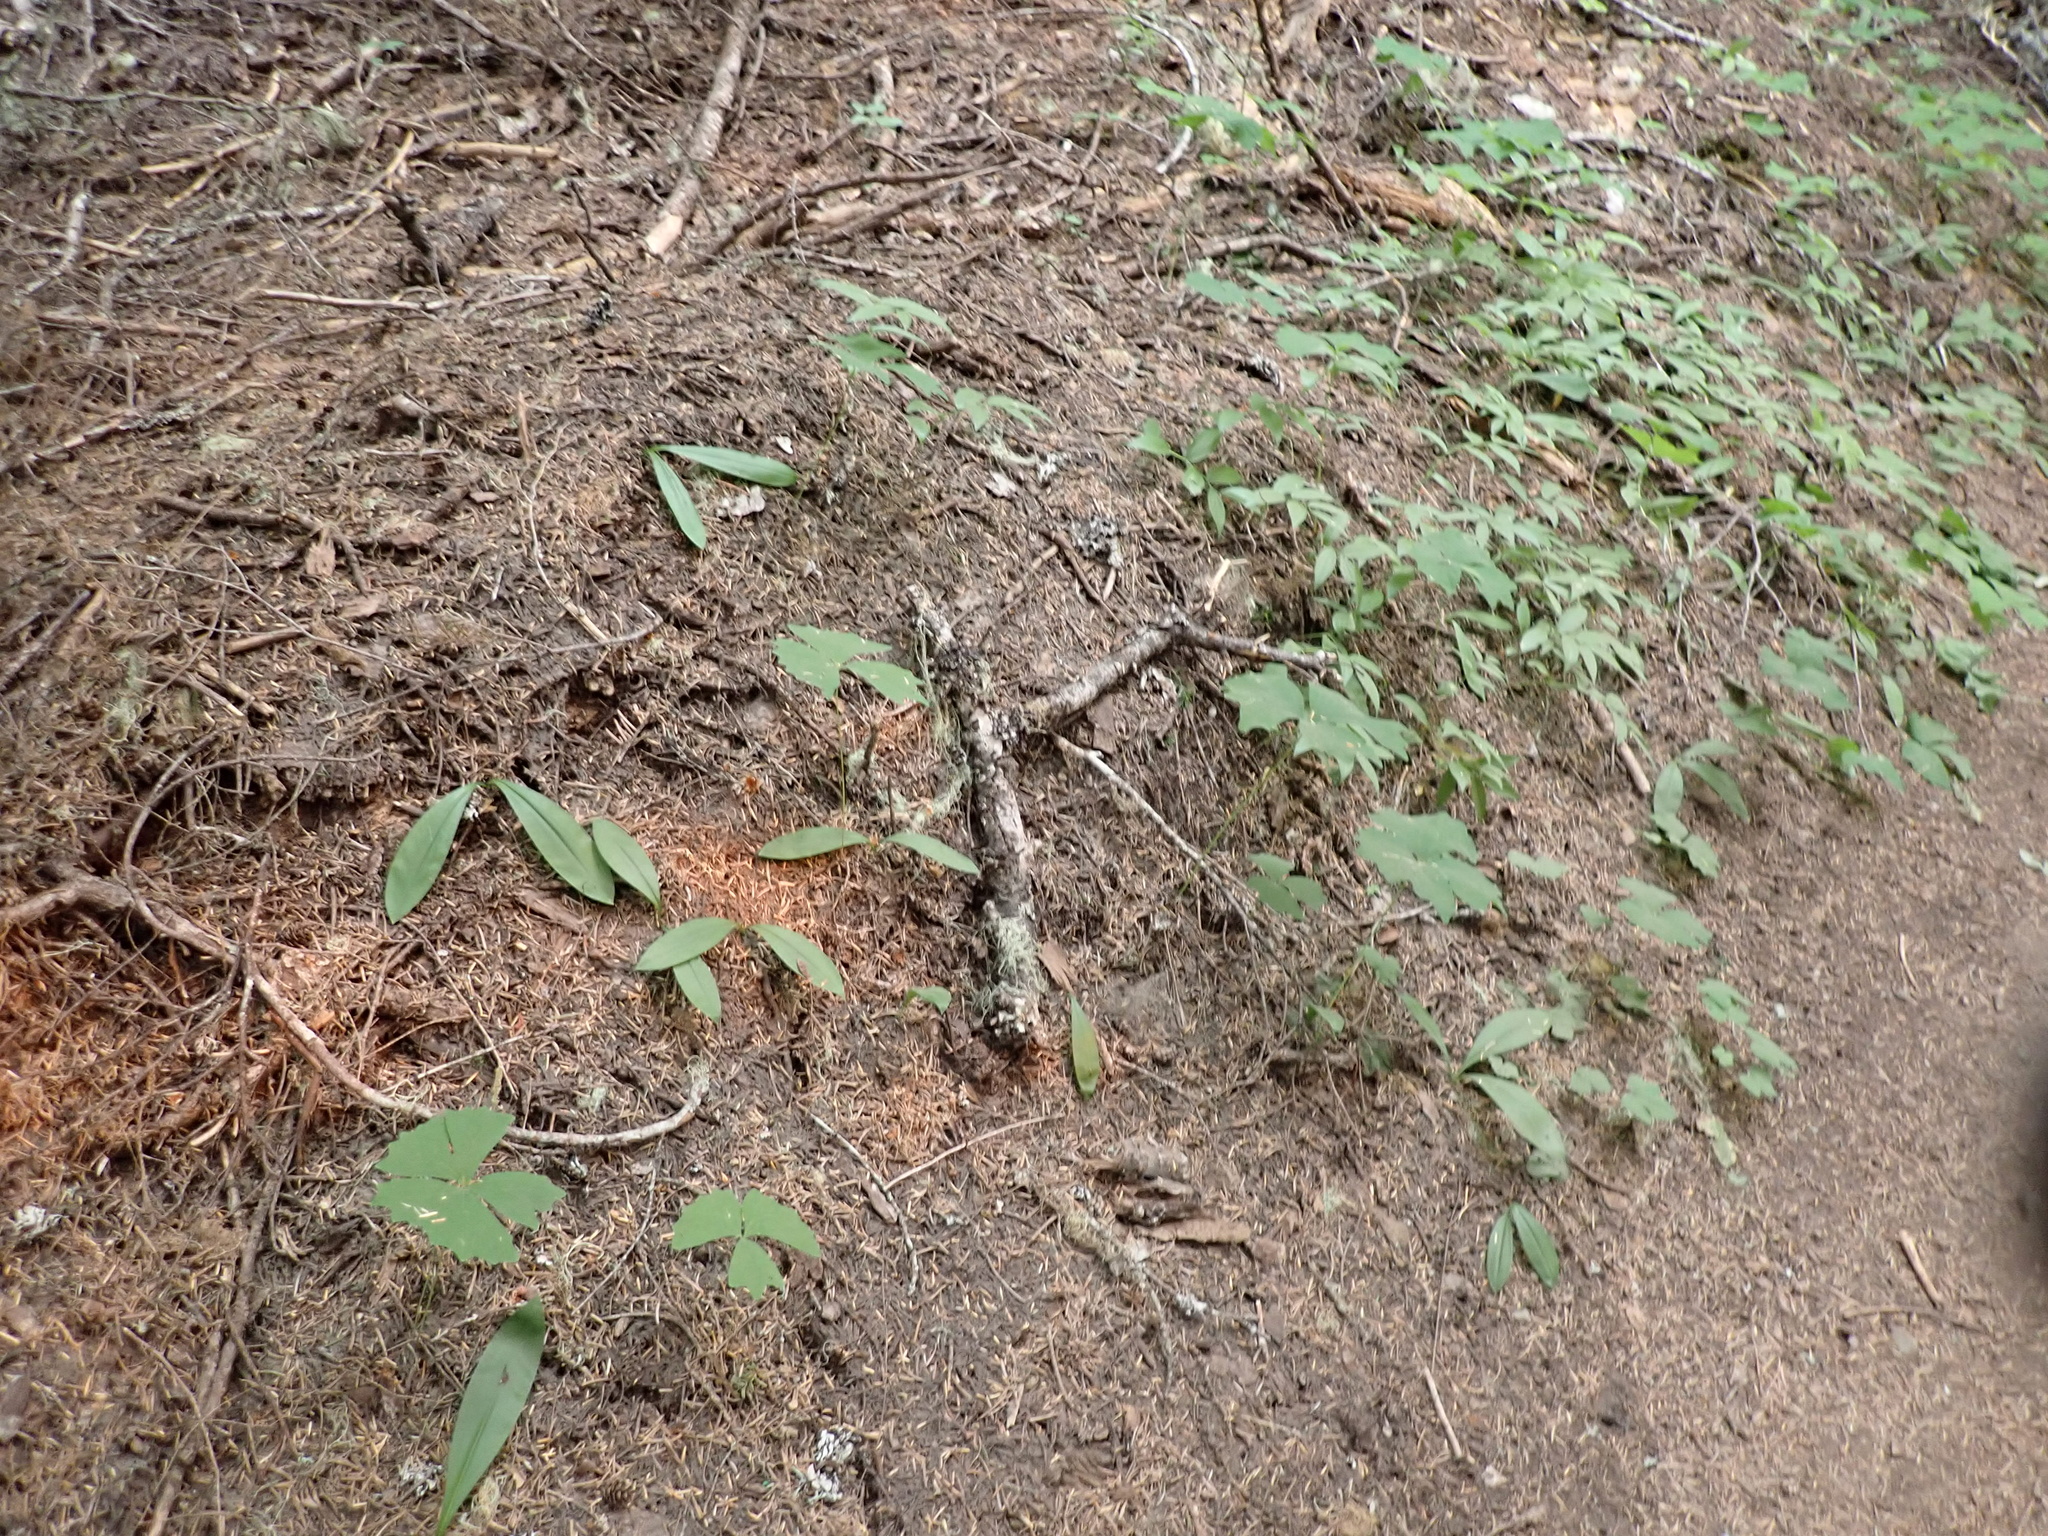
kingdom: Plantae
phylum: Tracheophyta
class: Liliopsida
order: Liliales
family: Liliaceae
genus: Clintonia
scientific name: Clintonia uniflora
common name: Queen's cup
